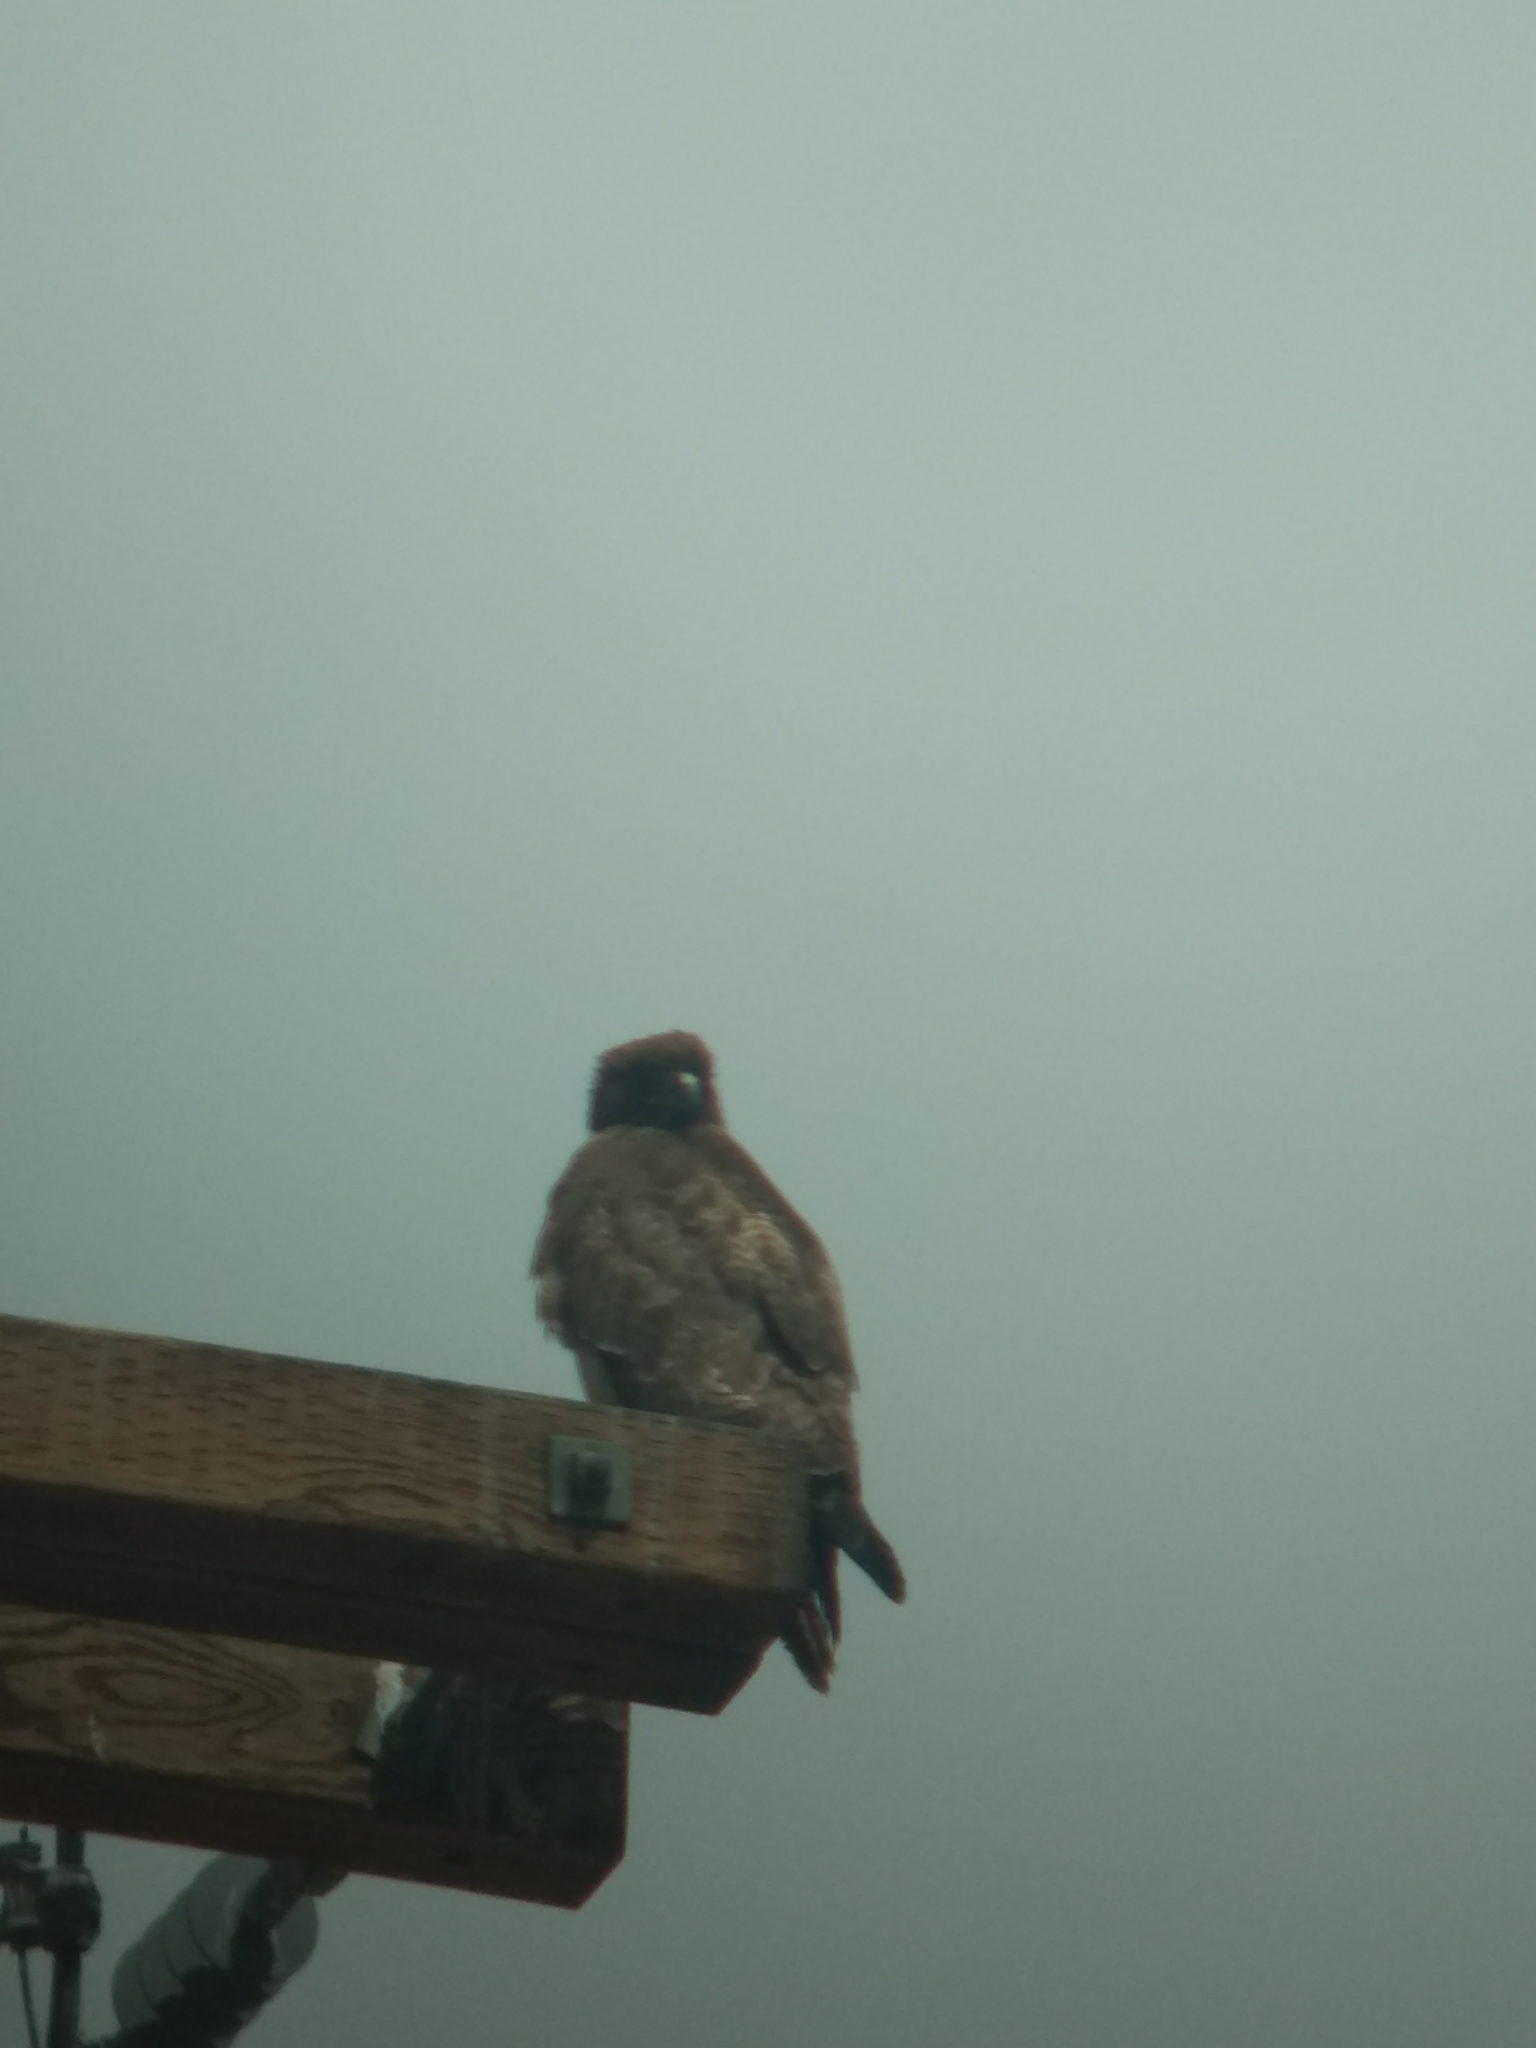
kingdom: Animalia
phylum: Chordata
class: Aves
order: Accipitriformes
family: Accipitridae
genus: Buteo
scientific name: Buteo jamaicensis
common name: Red-tailed hawk
